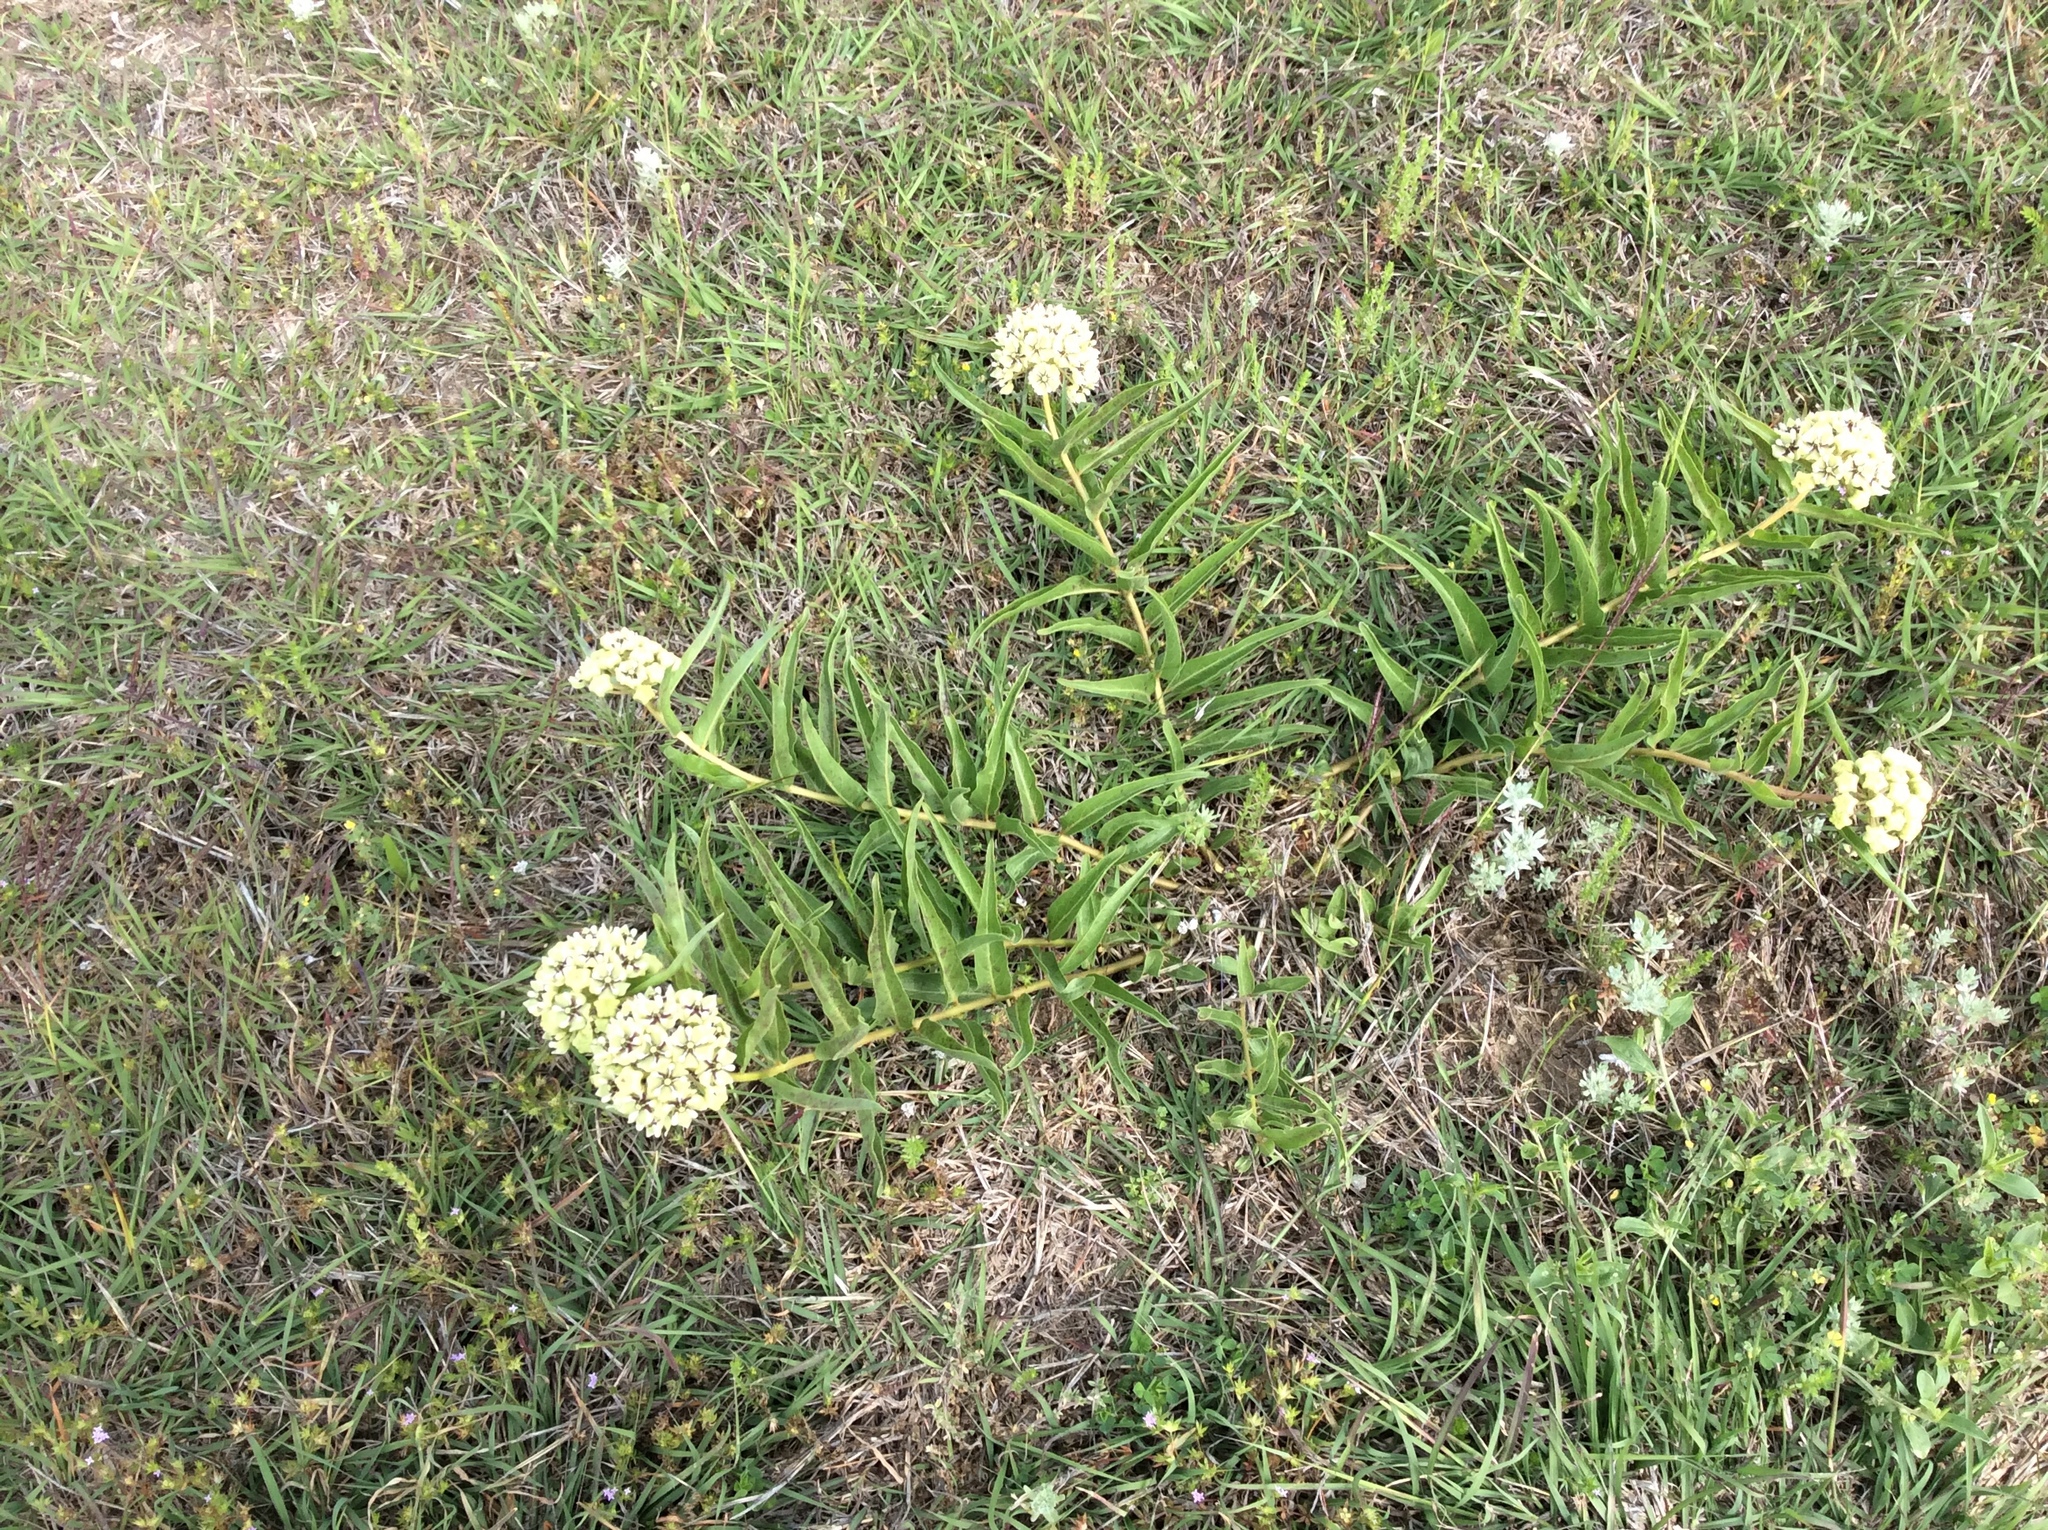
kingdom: Plantae
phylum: Tracheophyta
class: Magnoliopsida
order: Gentianales
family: Apocynaceae
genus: Asclepias
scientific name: Asclepias asperula
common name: Antelope horns
